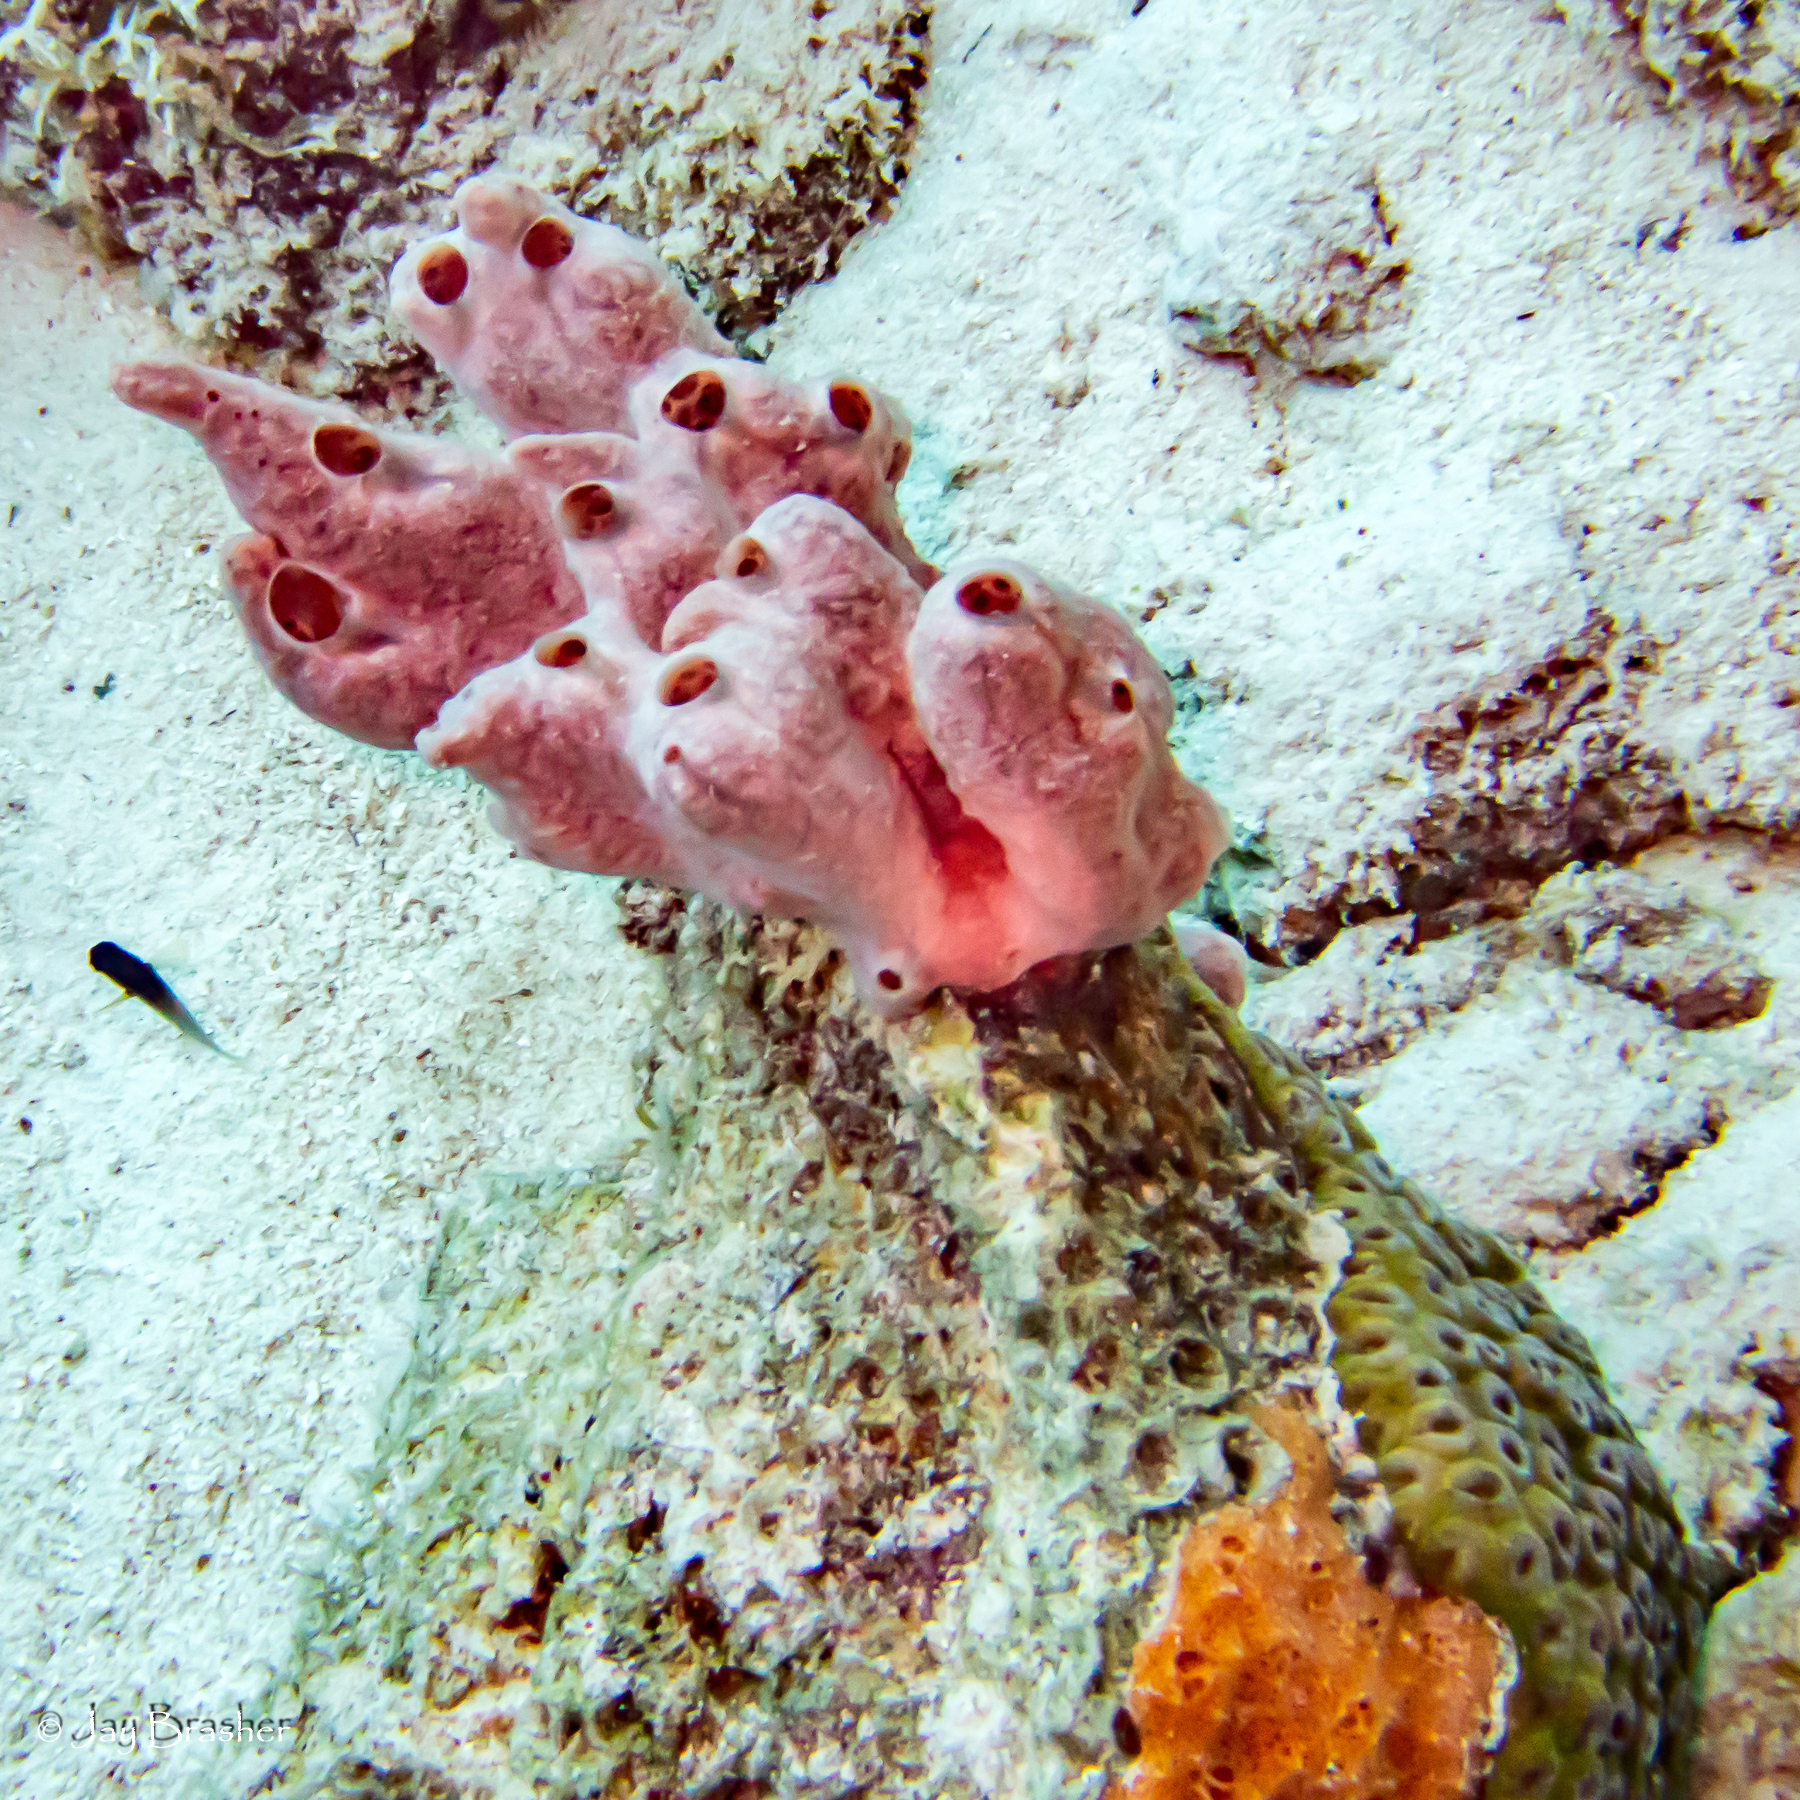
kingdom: Animalia
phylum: Porifera
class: Demospongiae
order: Scopalinida
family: Scopalinidae
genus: Scopalina
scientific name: Scopalina ruetzleri
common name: Orange lumpy encrusting sponge
